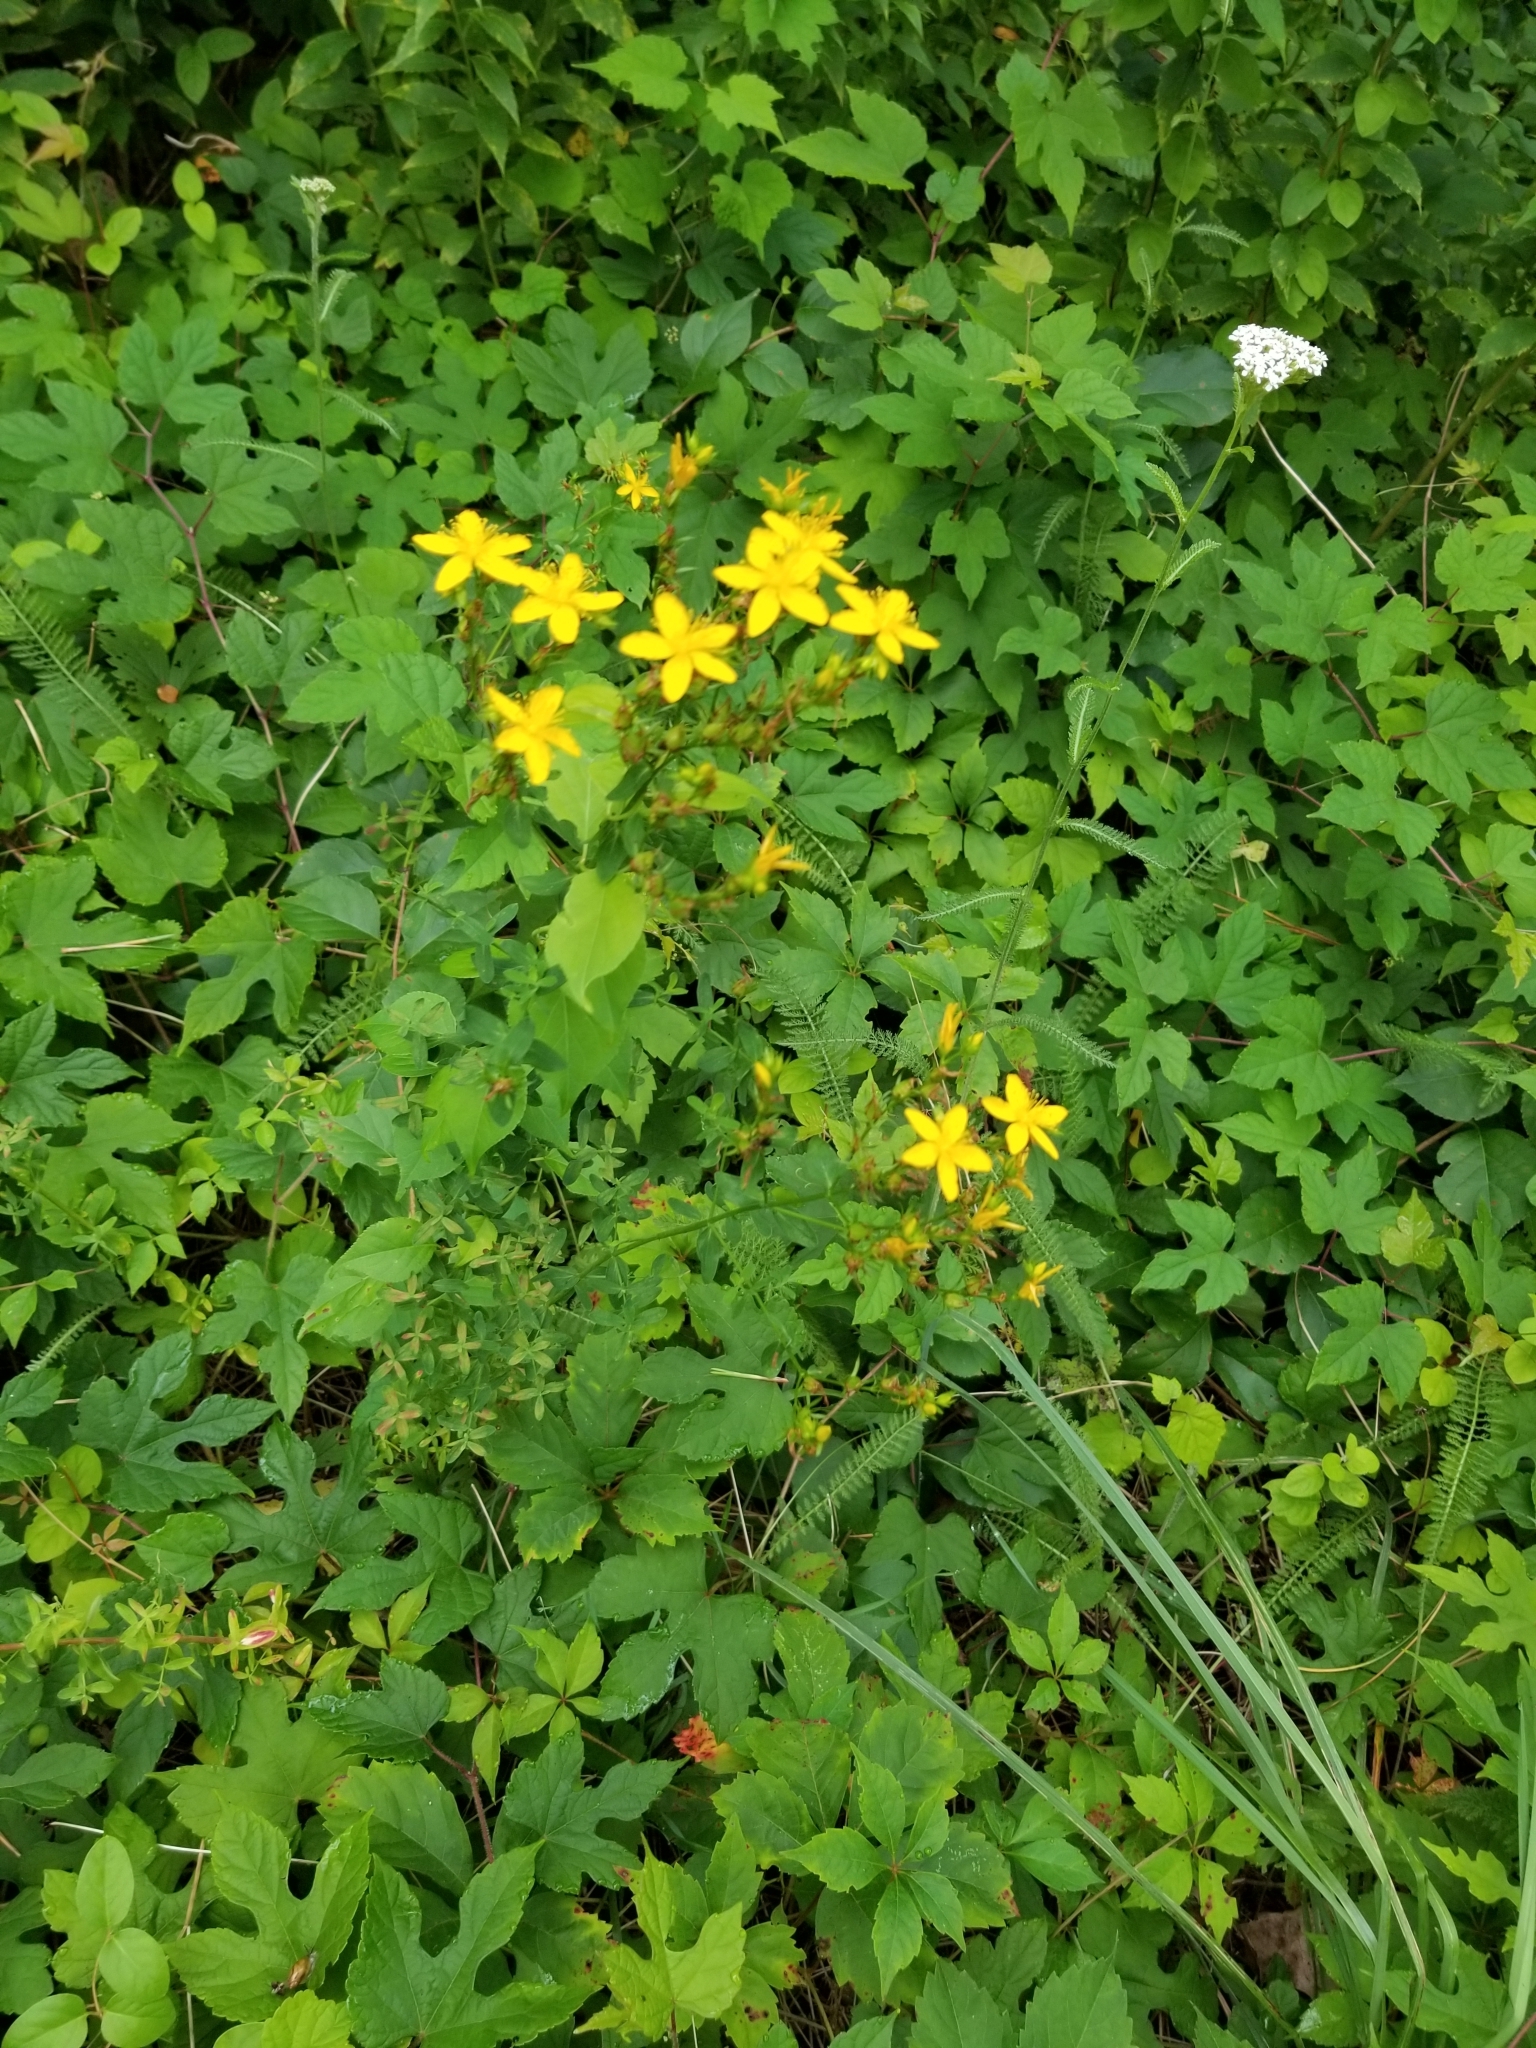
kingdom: Plantae
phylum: Tracheophyta
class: Magnoliopsida
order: Malpighiales
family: Hypericaceae
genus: Hypericum
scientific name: Hypericum perforatum
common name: Common st. johnswort
